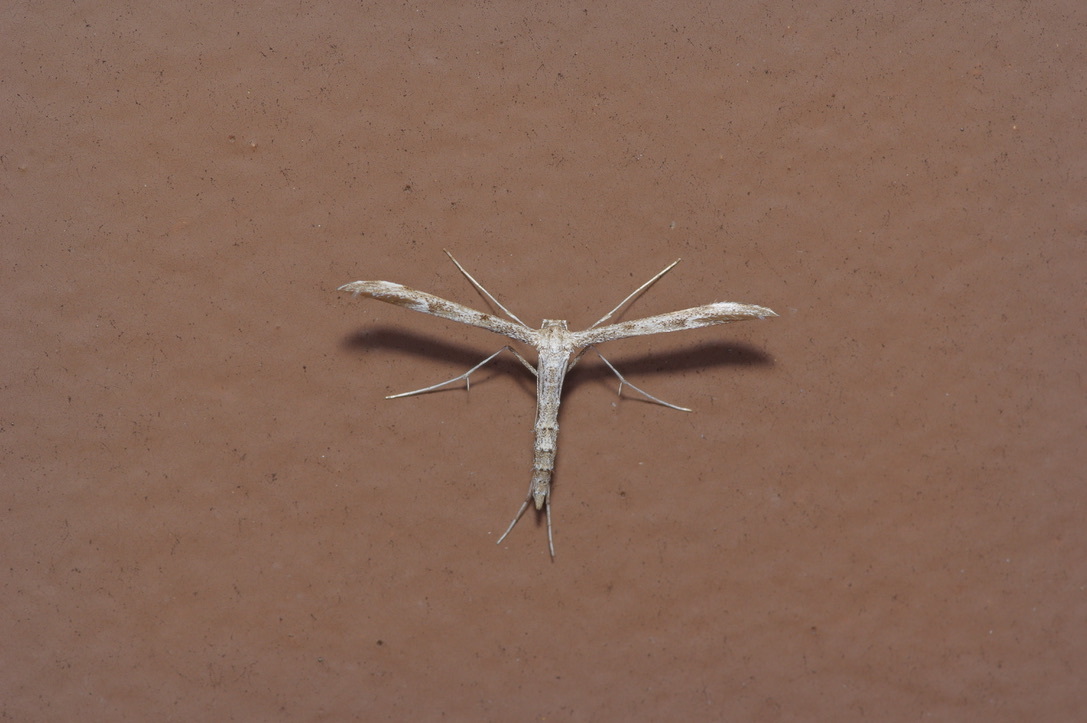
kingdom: Animalia
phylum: Arthropoda
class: Insecta
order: Lepidoptera
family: Pterophoridae
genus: Hellinsia
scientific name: Hellinsia inquinatus
